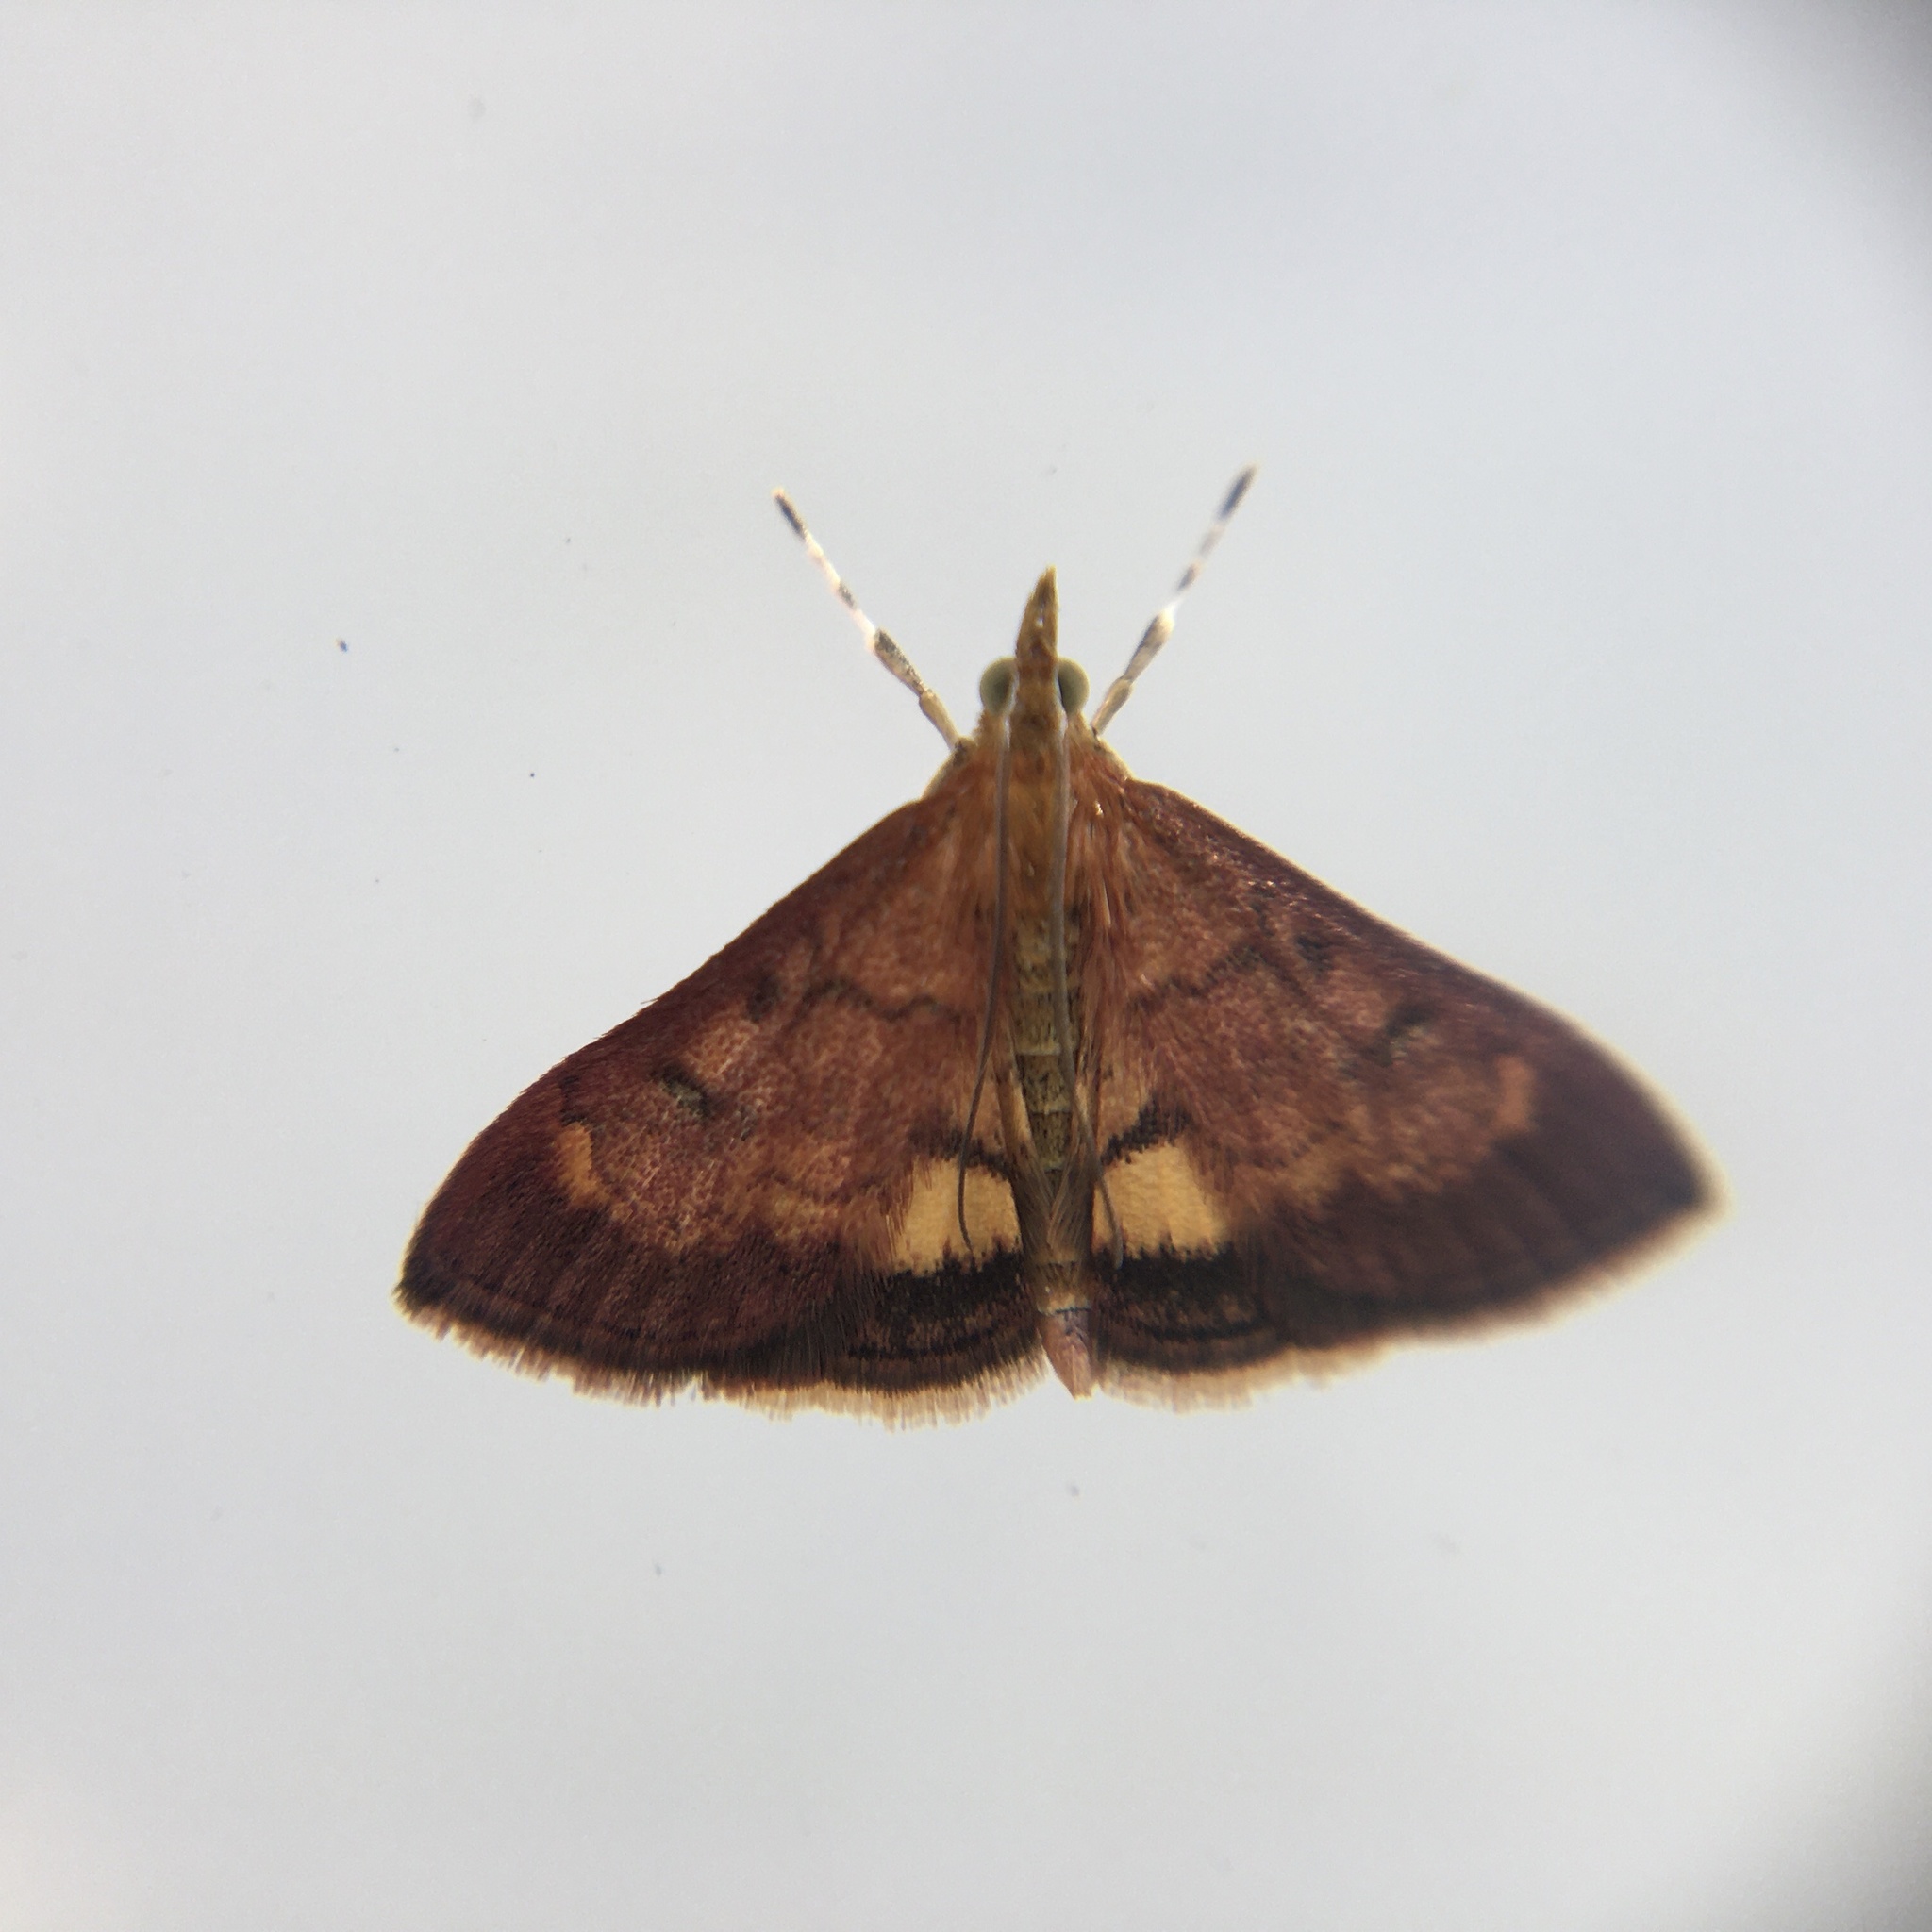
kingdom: Animalia
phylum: Arthropoda
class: Insecta
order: Lepidoptera
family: Crambidae
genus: Pyrausta
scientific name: Pyrausta californicalis
